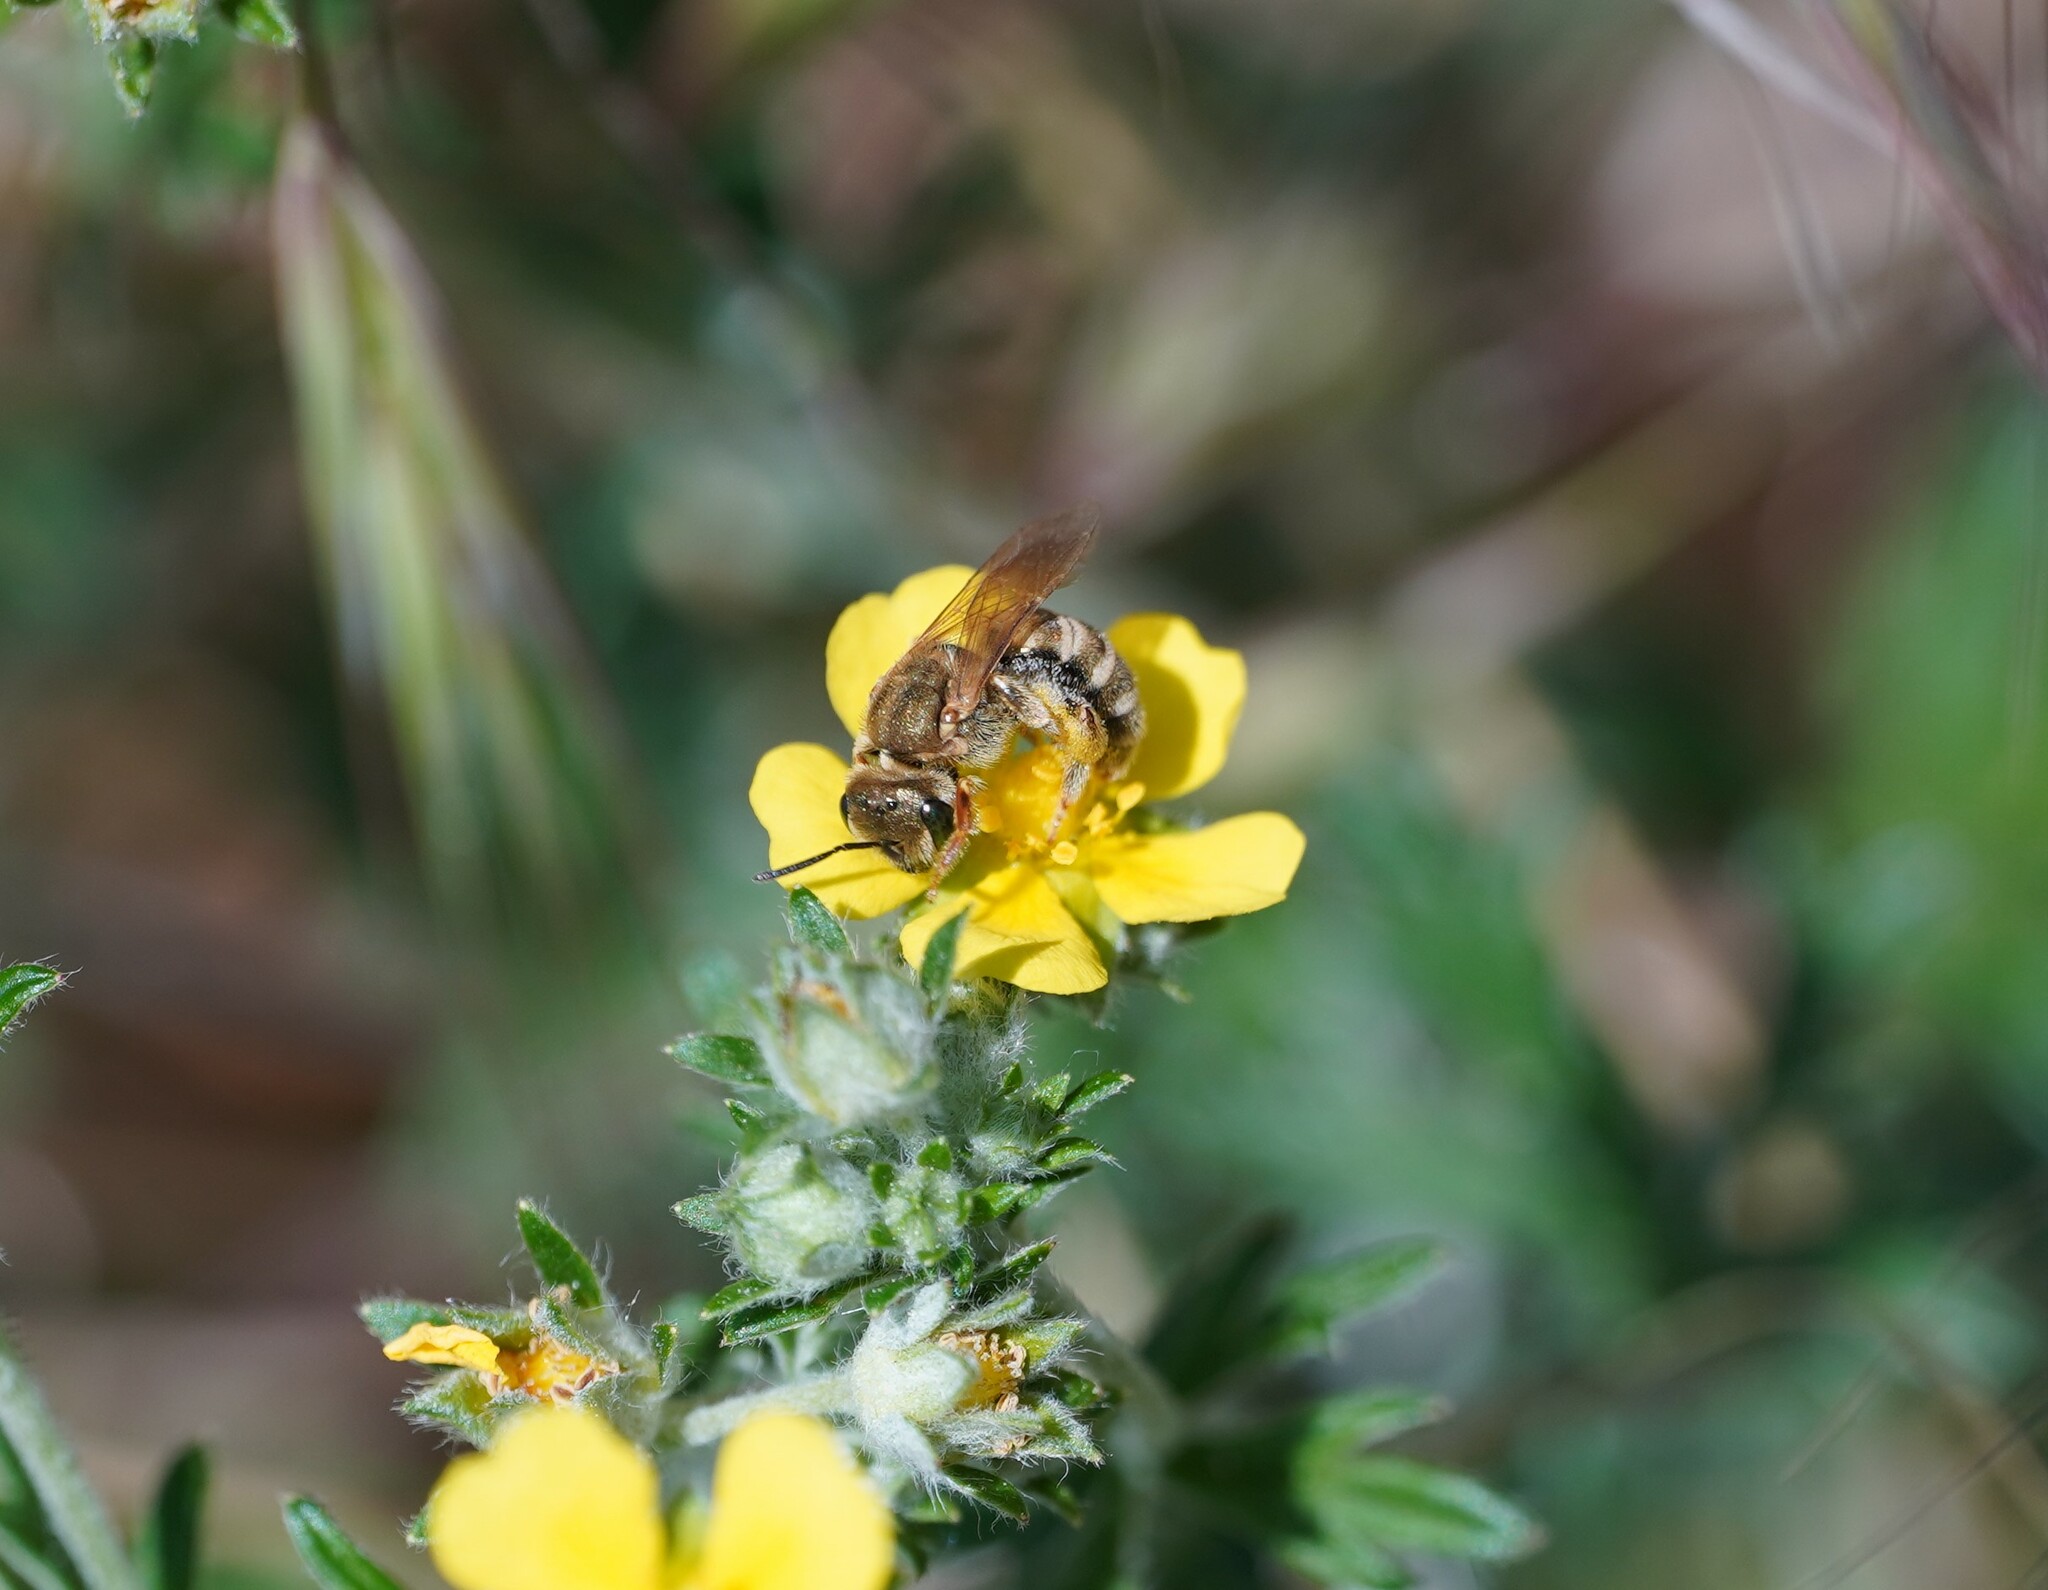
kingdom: Animalia
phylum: Arthropoda
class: Insecta
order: Hymenoptera
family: Halictidae
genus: Halictus
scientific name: Halictus subauratus
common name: Golden furrow bee
